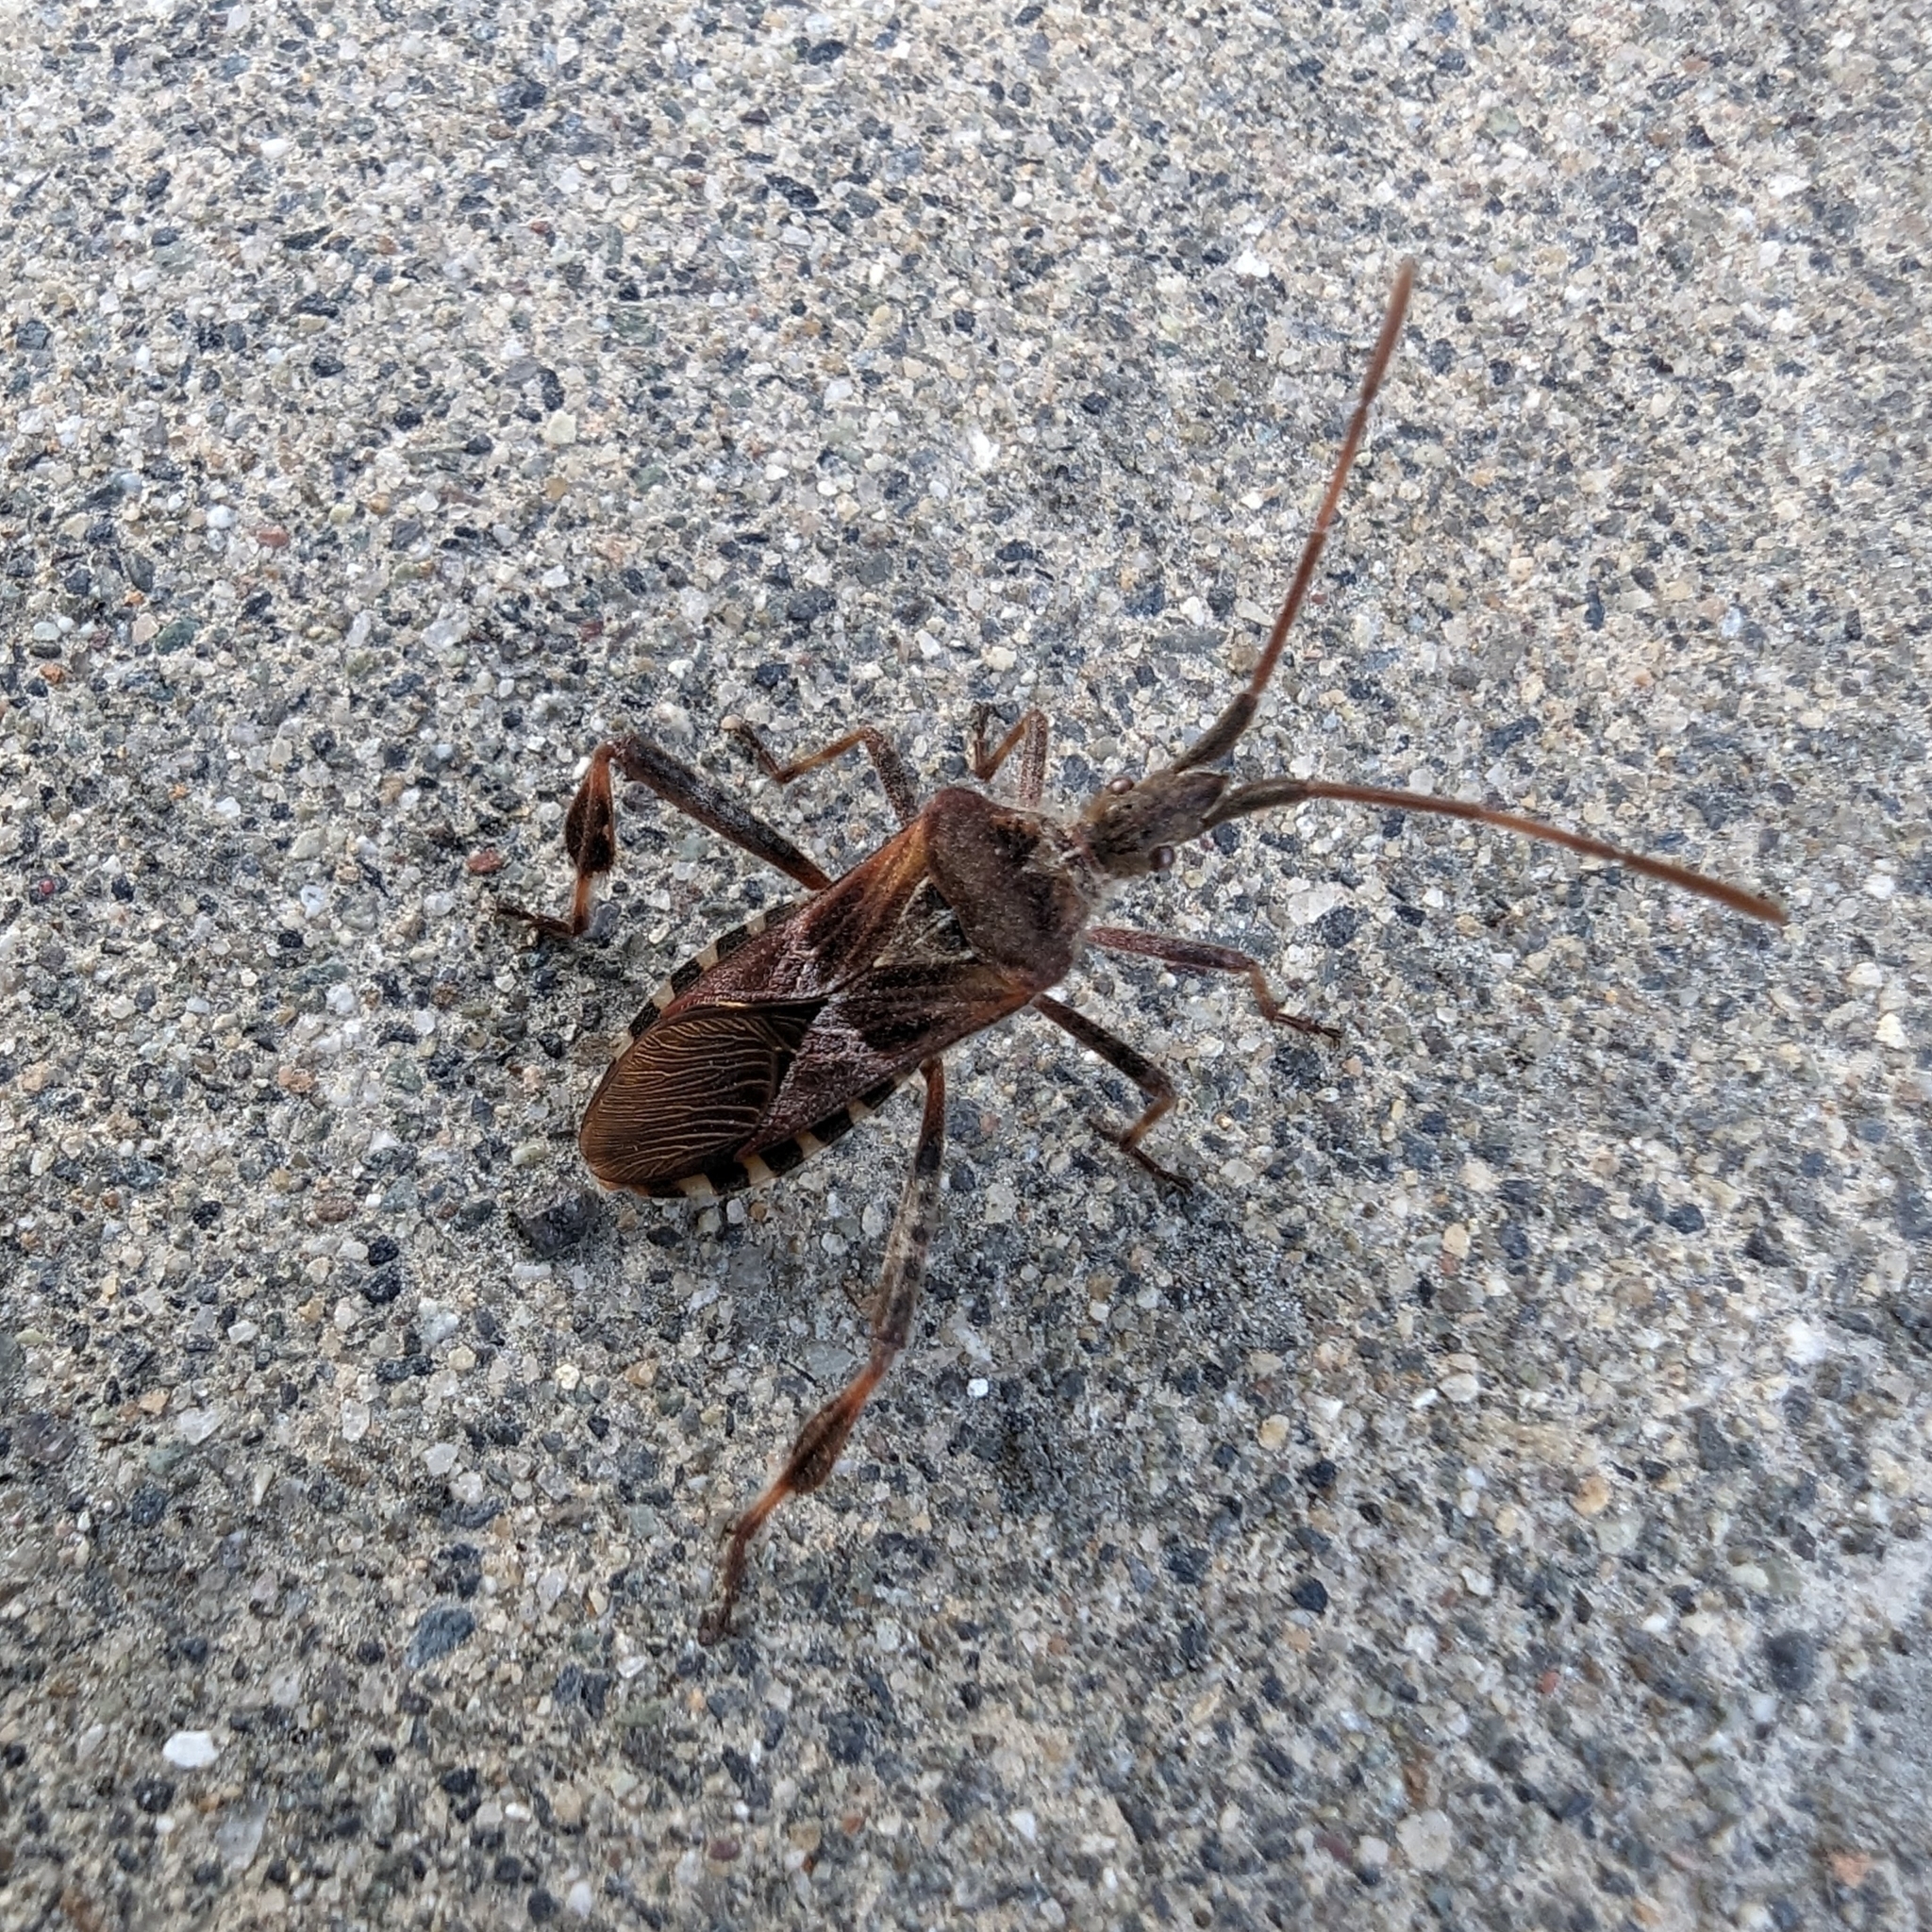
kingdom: Animalia
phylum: Arthropoda
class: Insecta
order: Hemiptera
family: Coreidae
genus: Leptoglossus
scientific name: Leptoglossus occidentalis
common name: Western conifer-seed bug
